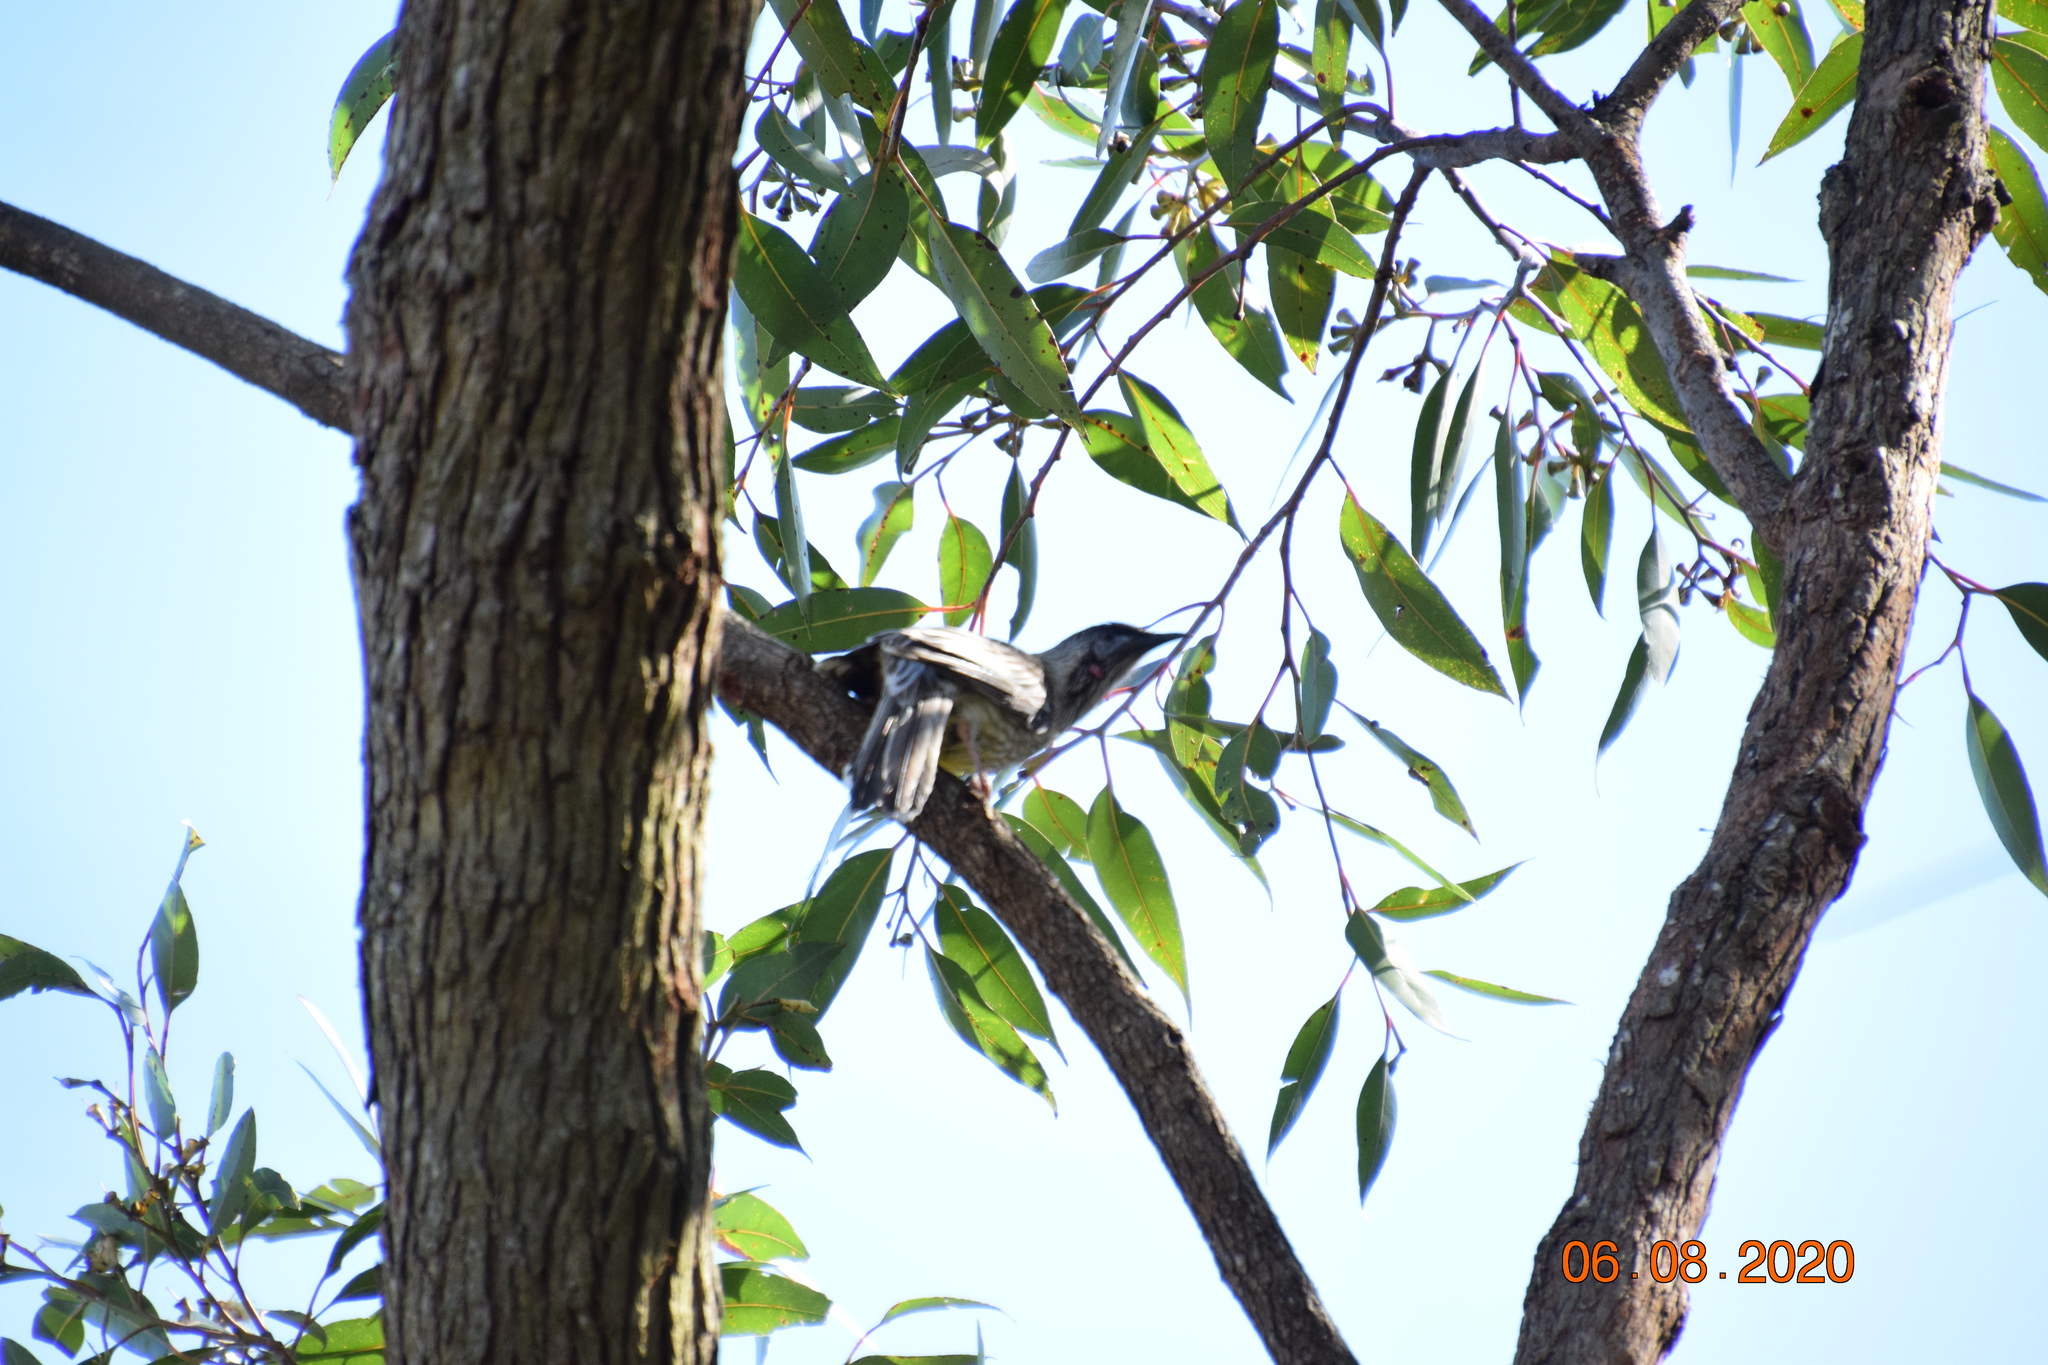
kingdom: Animalia
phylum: Chordata
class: Aves
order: Passeriformes
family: Meliphagidae
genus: Anthochaera
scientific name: Anthochaera carunculata
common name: Red wattlebird
